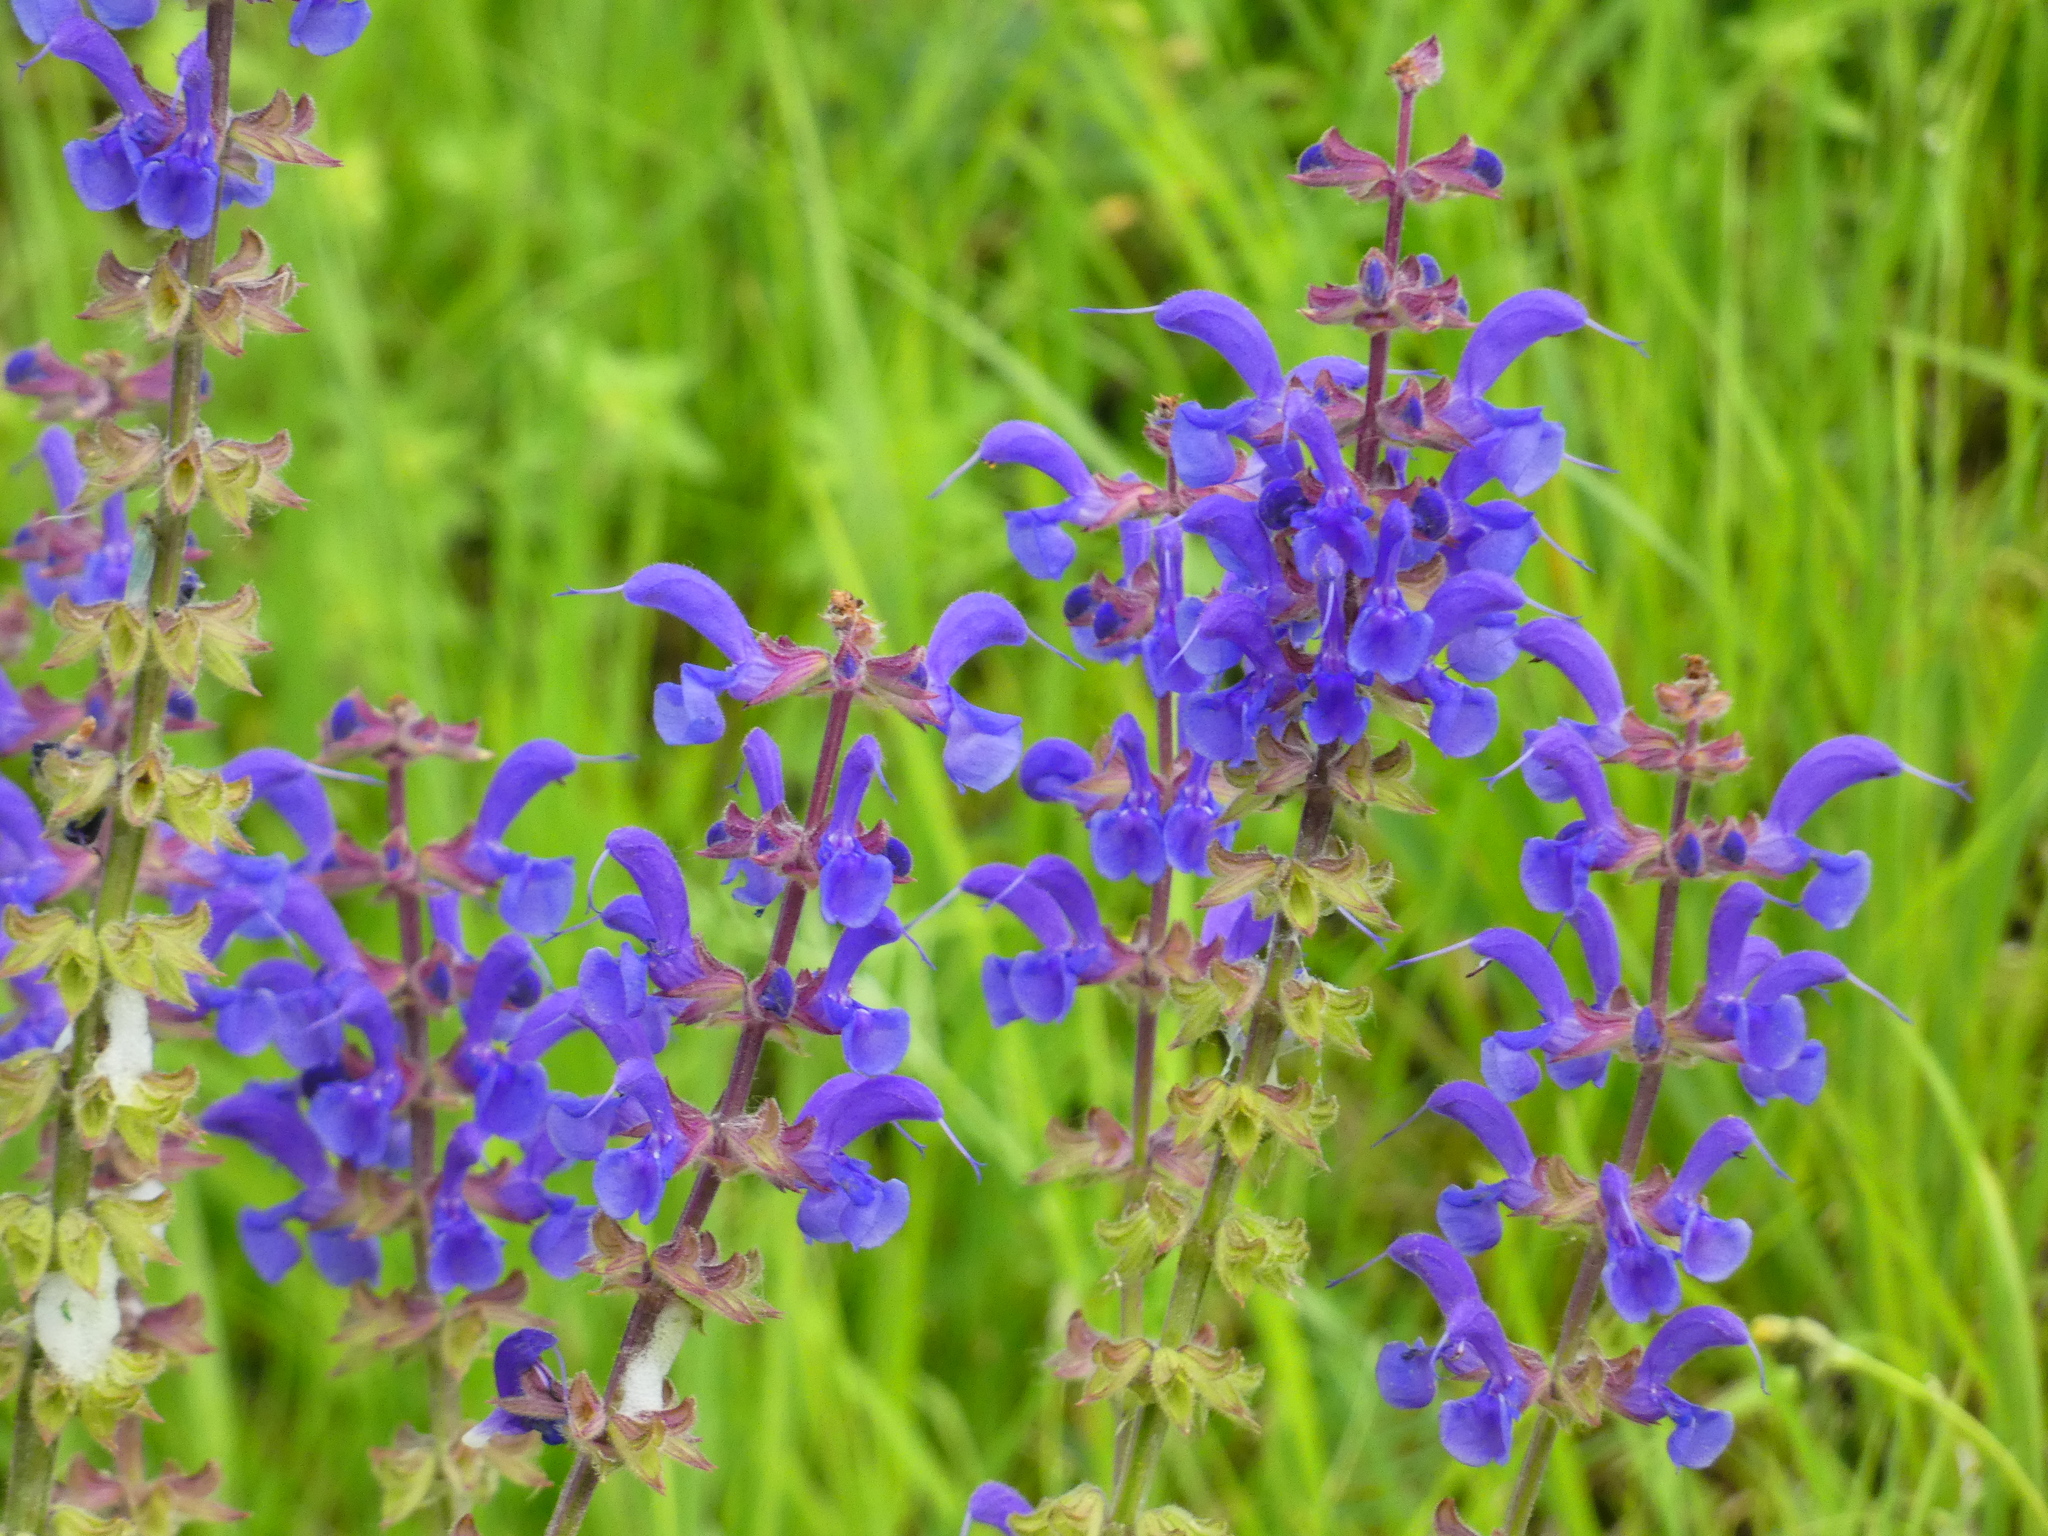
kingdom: Plantae
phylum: Tracheophyta
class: Magnoliopsida
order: Lamiales
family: Lamiaceae
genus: Salvia
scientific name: Salvia pratensis
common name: Meadow sage
